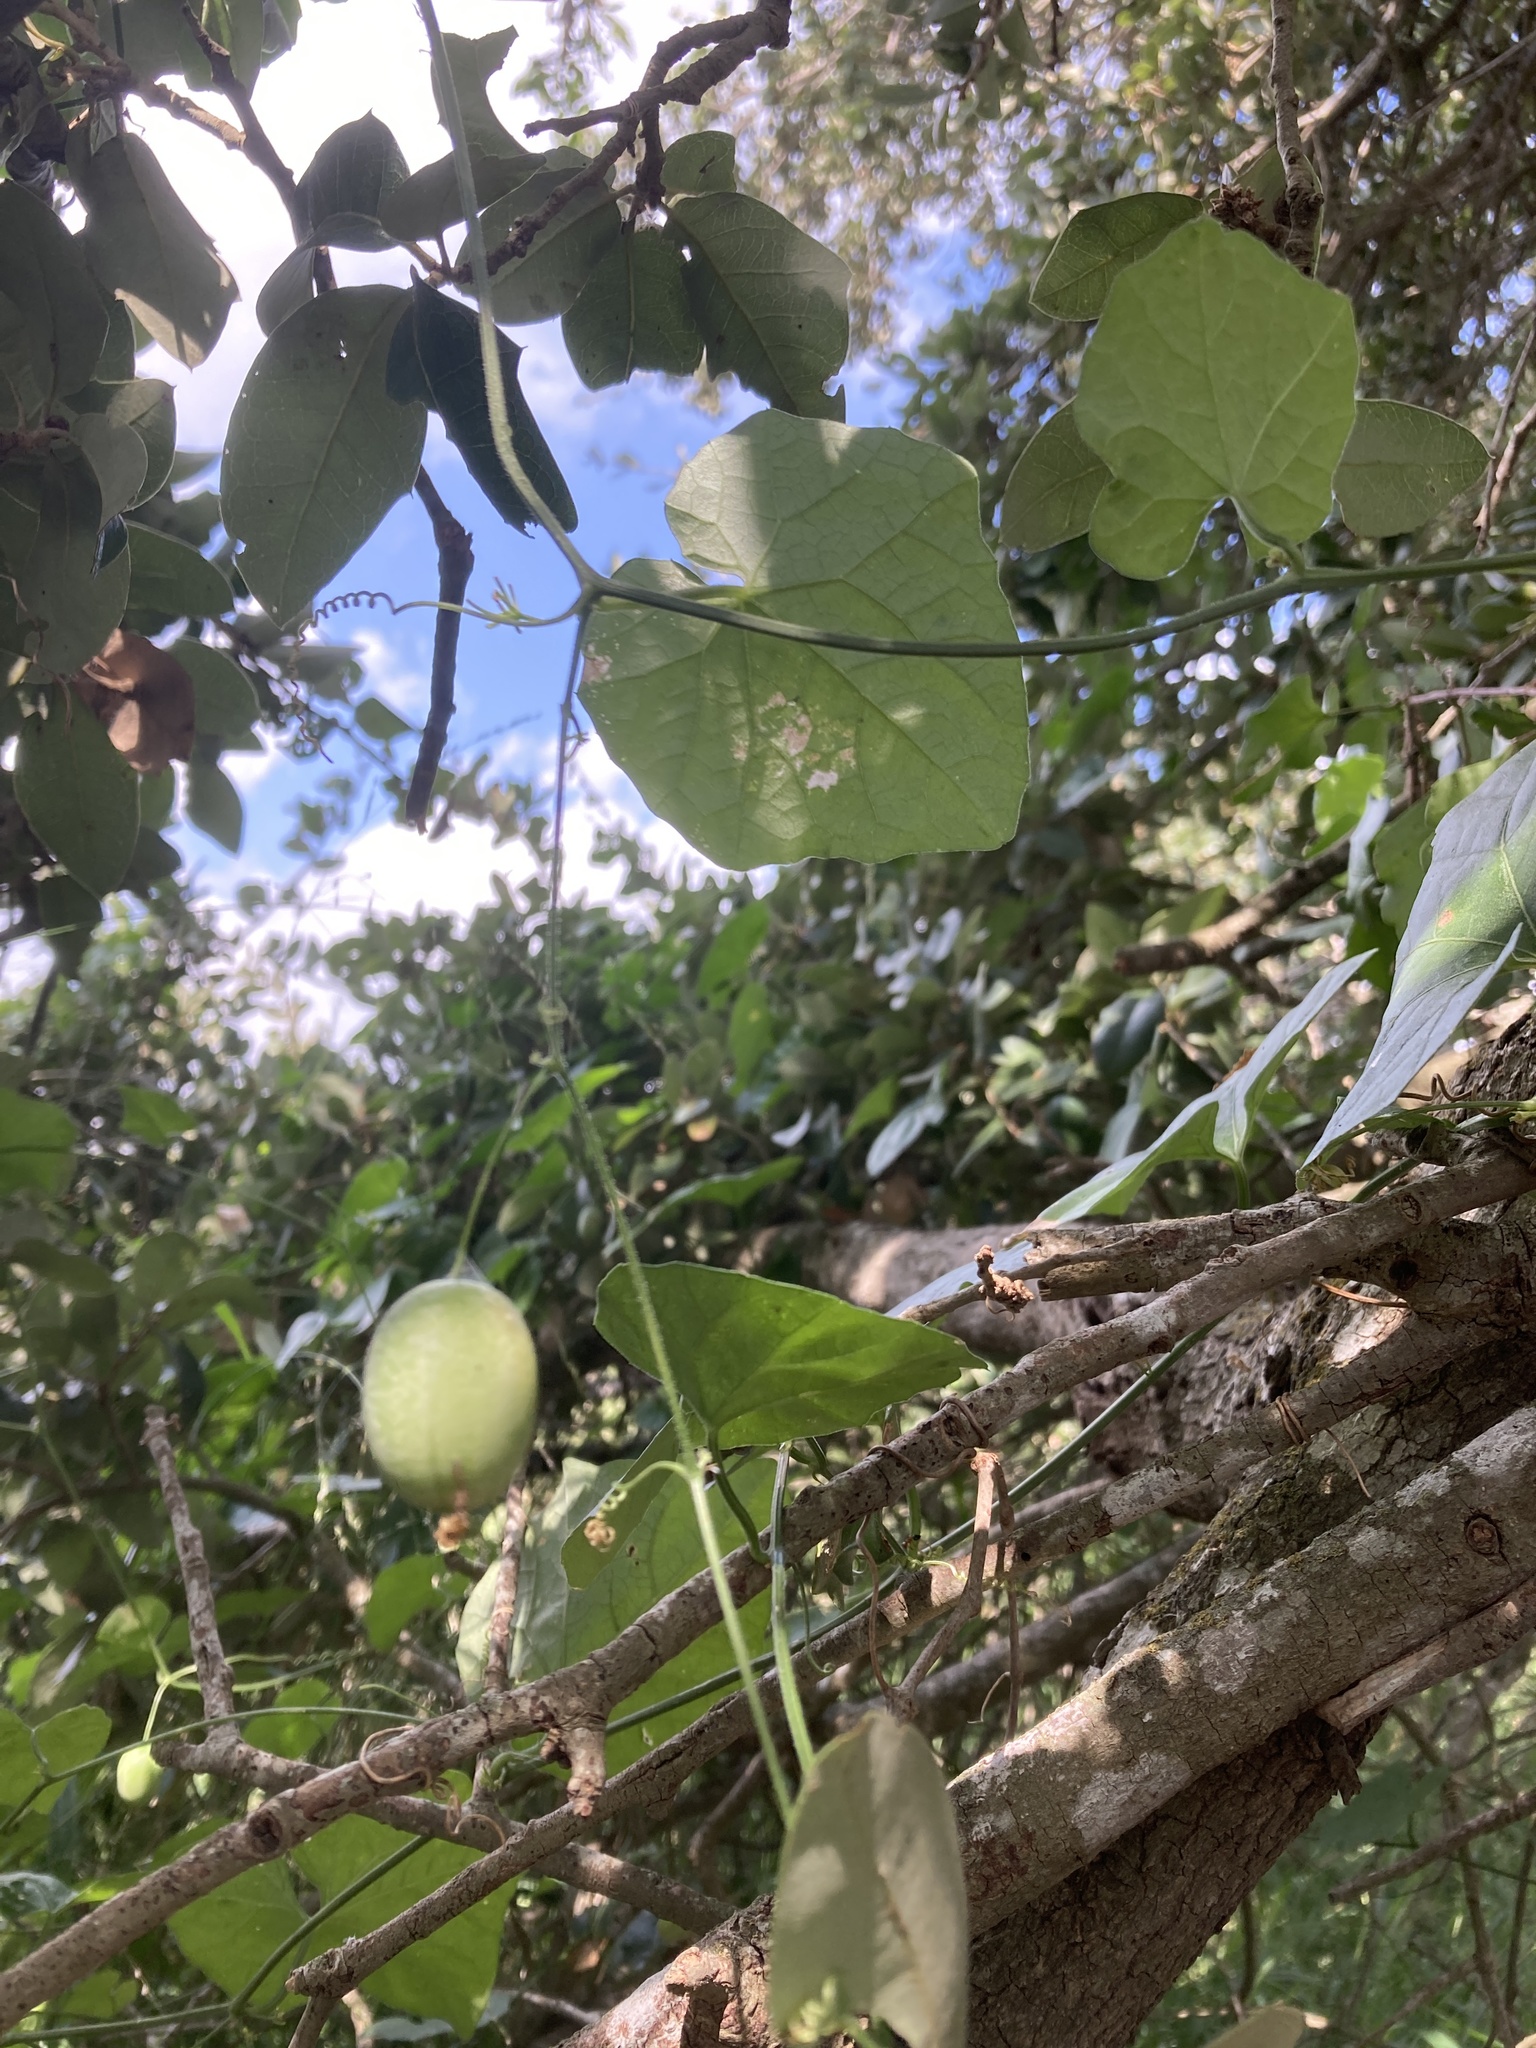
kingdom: Plantae
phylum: Tracheophyta
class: Magnoliopsida
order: Cucurbitales
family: Cucurbitaceae
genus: Ibervillea
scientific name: Ibervillea lindheimeri
